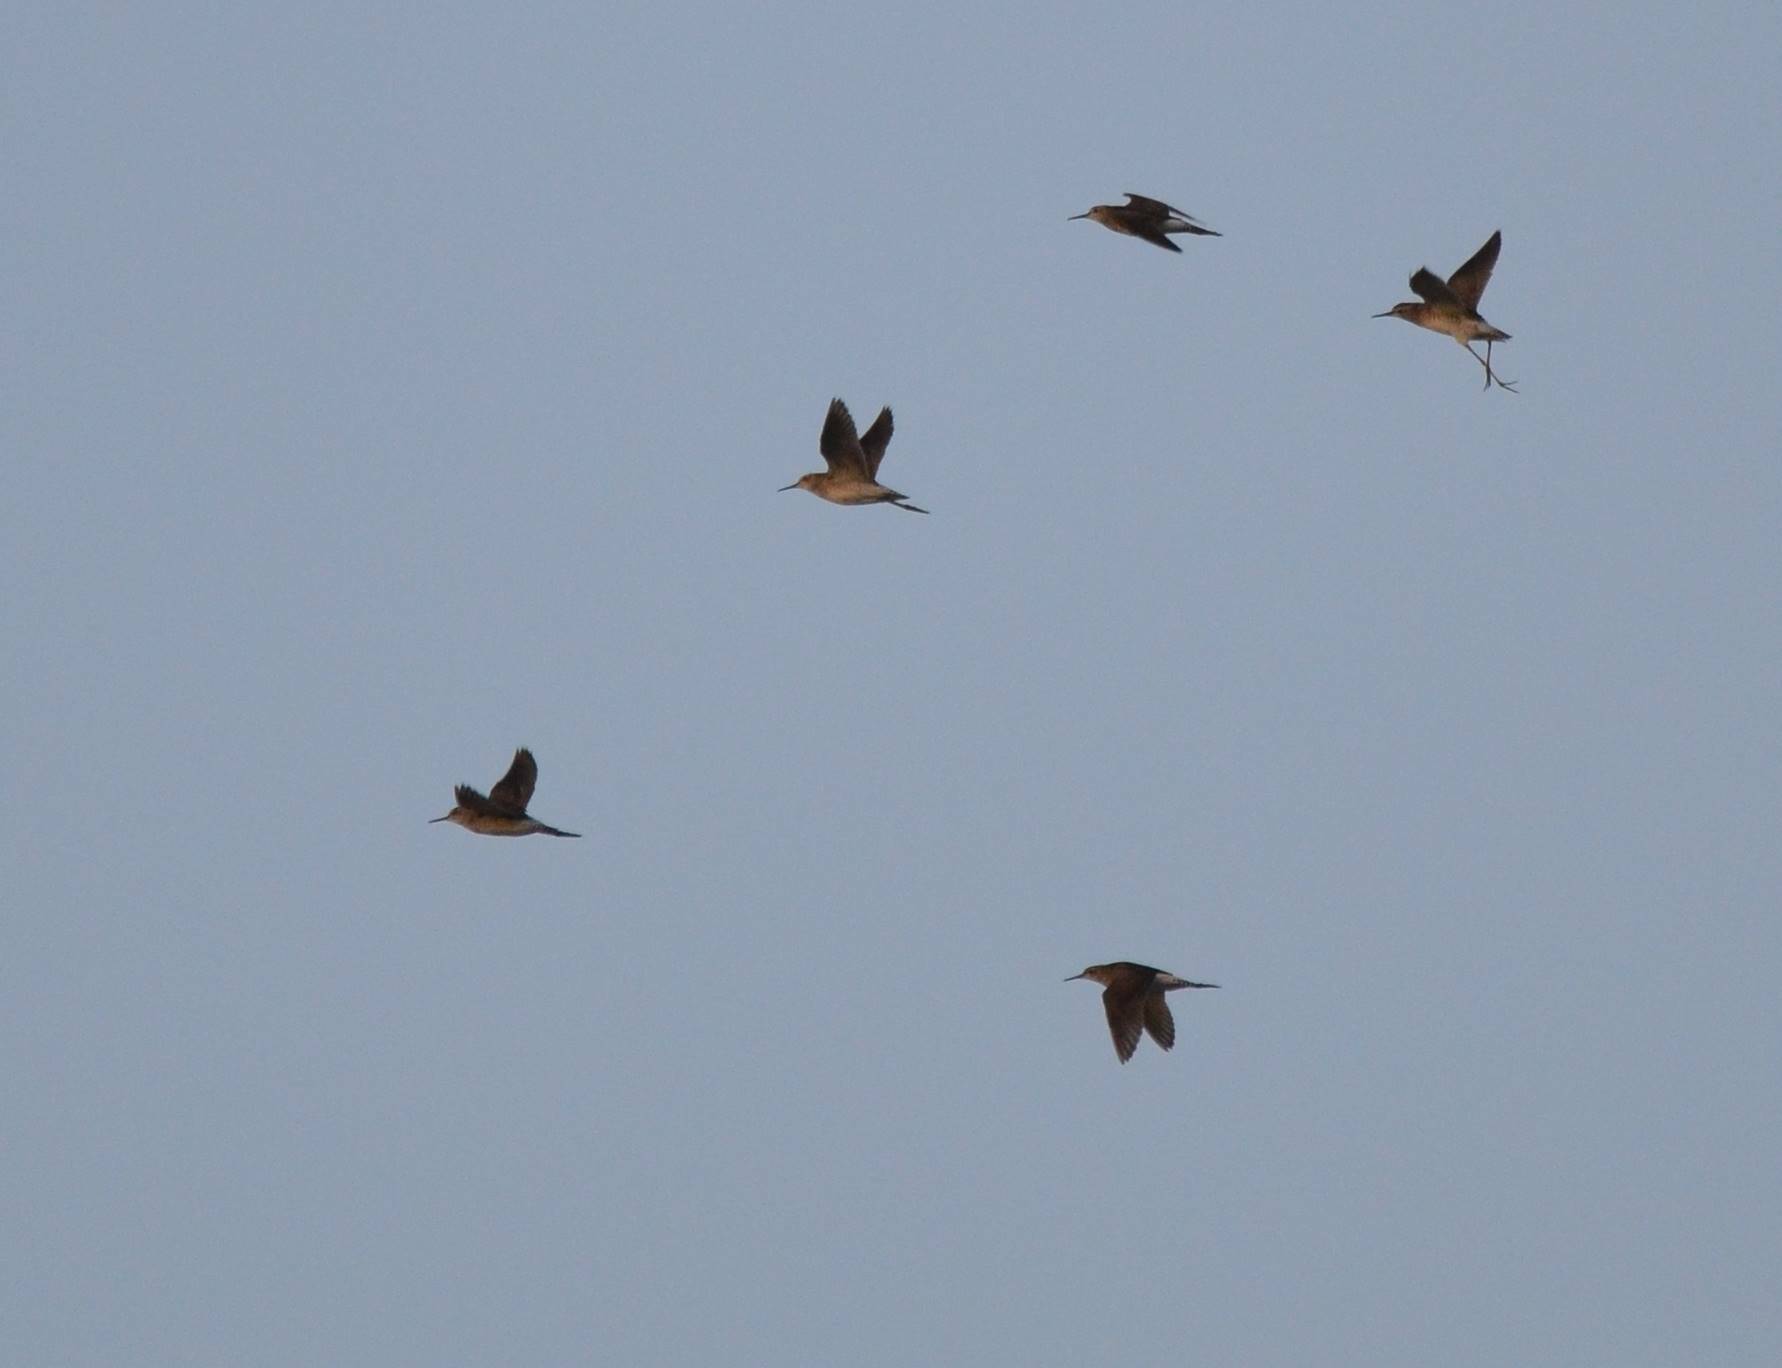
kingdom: Animalia
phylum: Chordata
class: Aves
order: Charadriiformes
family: Scolopacidae
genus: Tringa
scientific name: Tringa glareola
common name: Wood sandpiper
